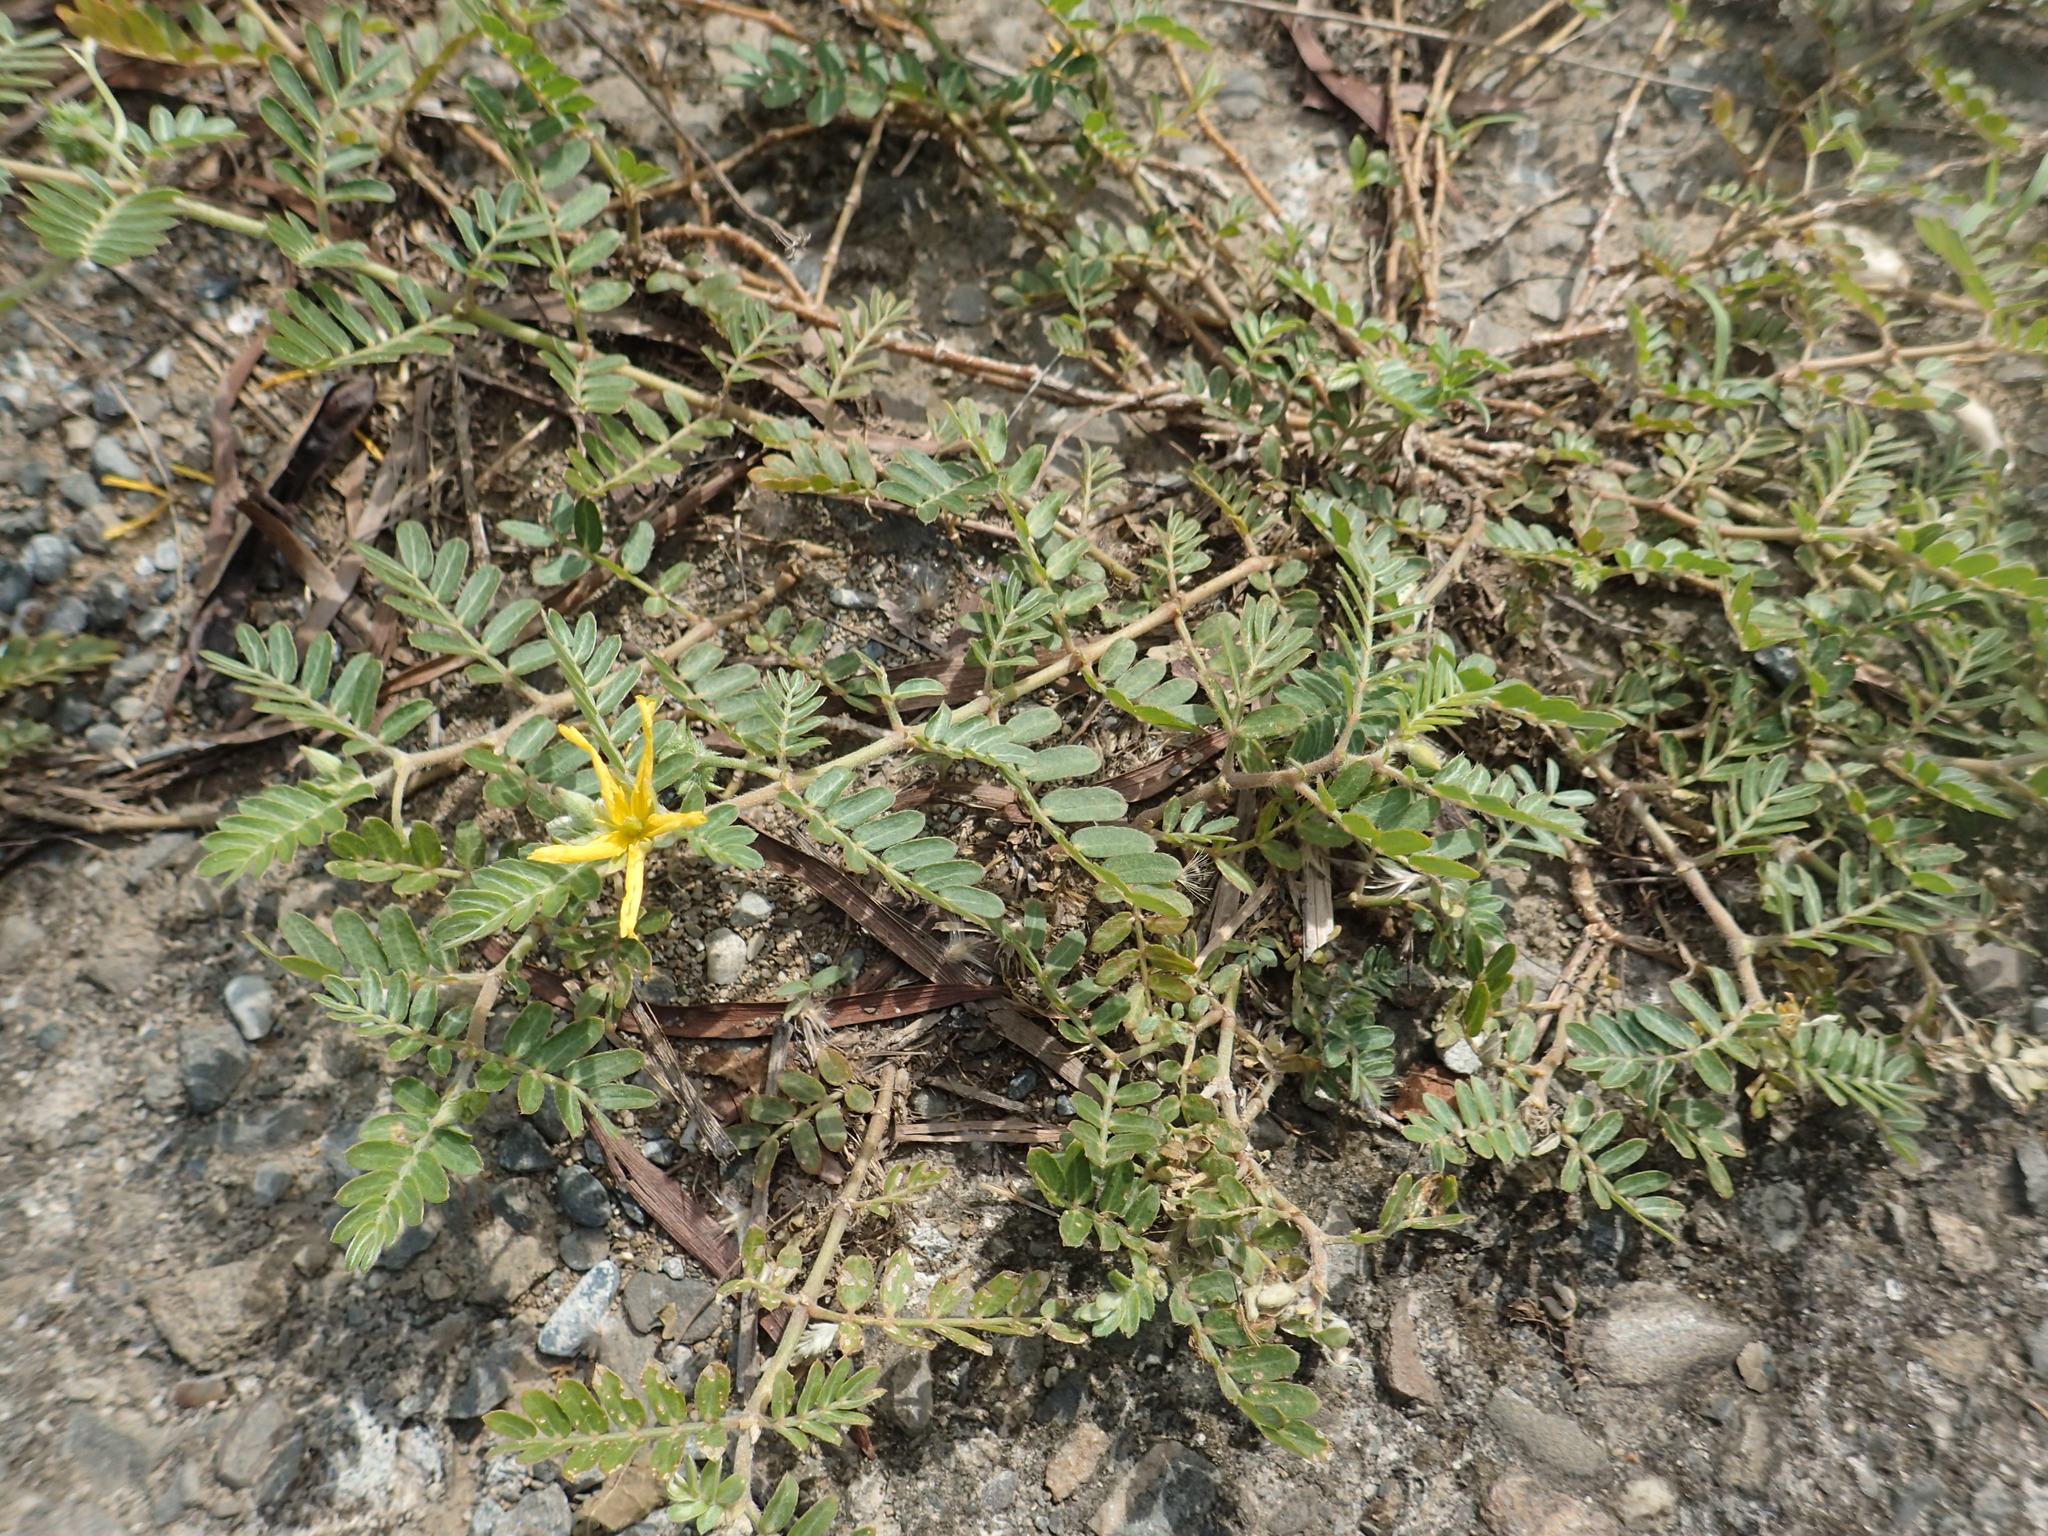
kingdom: Plantae
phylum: Tracheophyta
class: Magnoliopsida
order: Zygophyllales
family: Zygophyllaceae
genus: Tribulus
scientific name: Tribulus cistoides
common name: Jamaican feverplant
